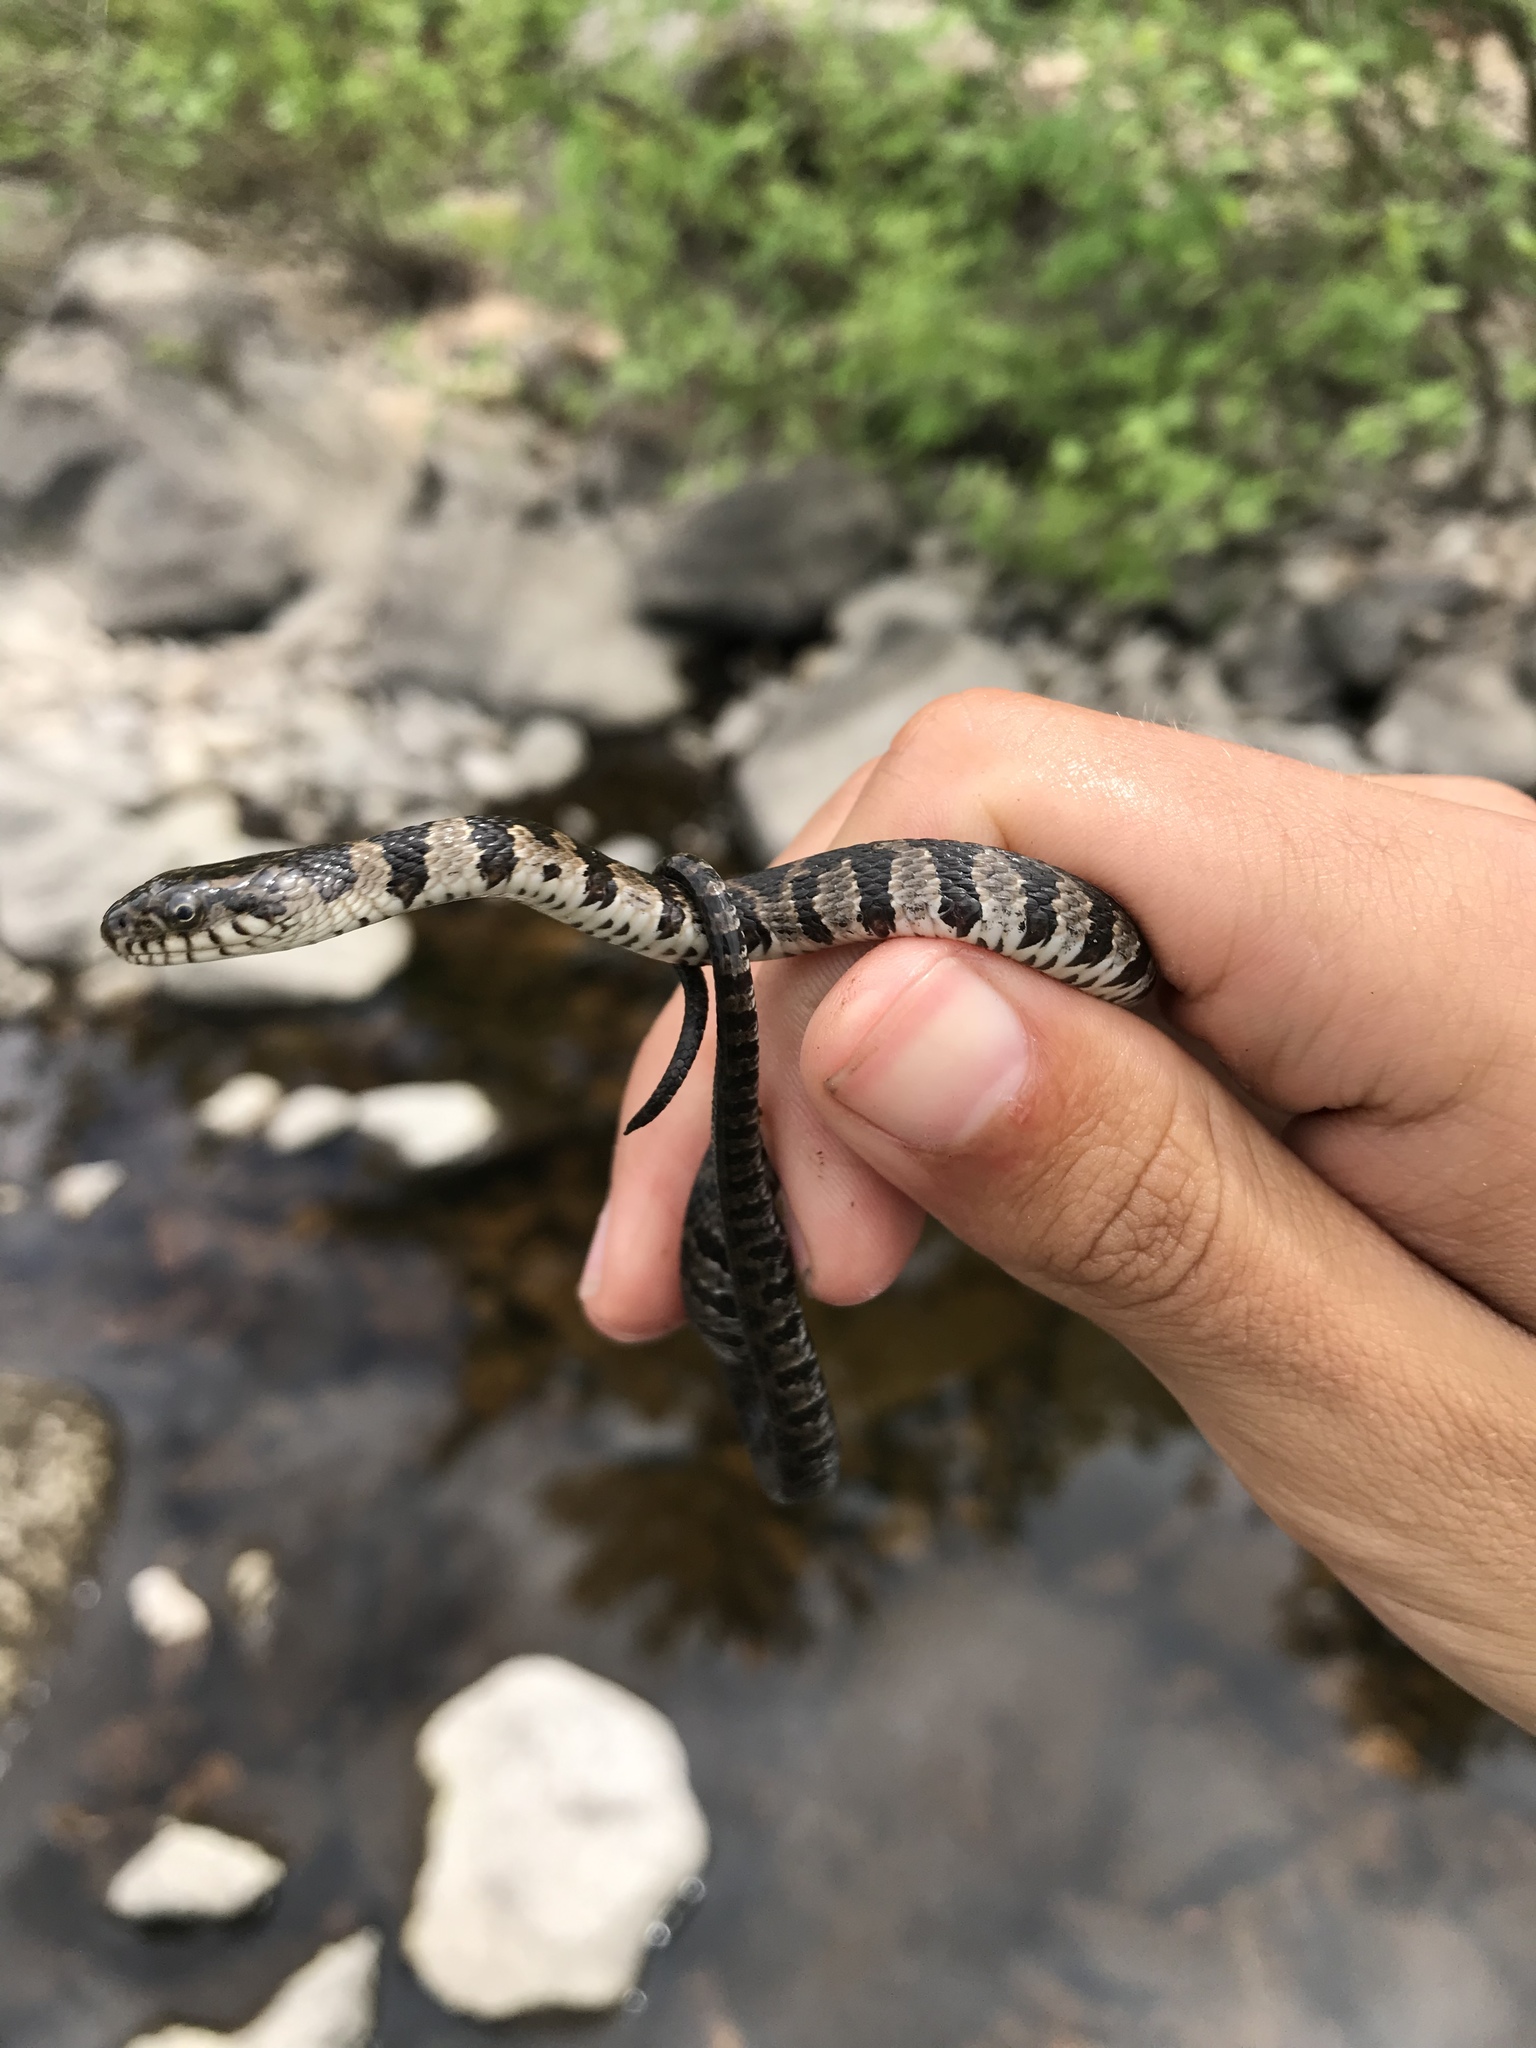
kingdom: Animalia
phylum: Chordata
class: Squamata
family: Colubridae
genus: Nerodia
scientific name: Nerodia sipedon
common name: Northern water snake
